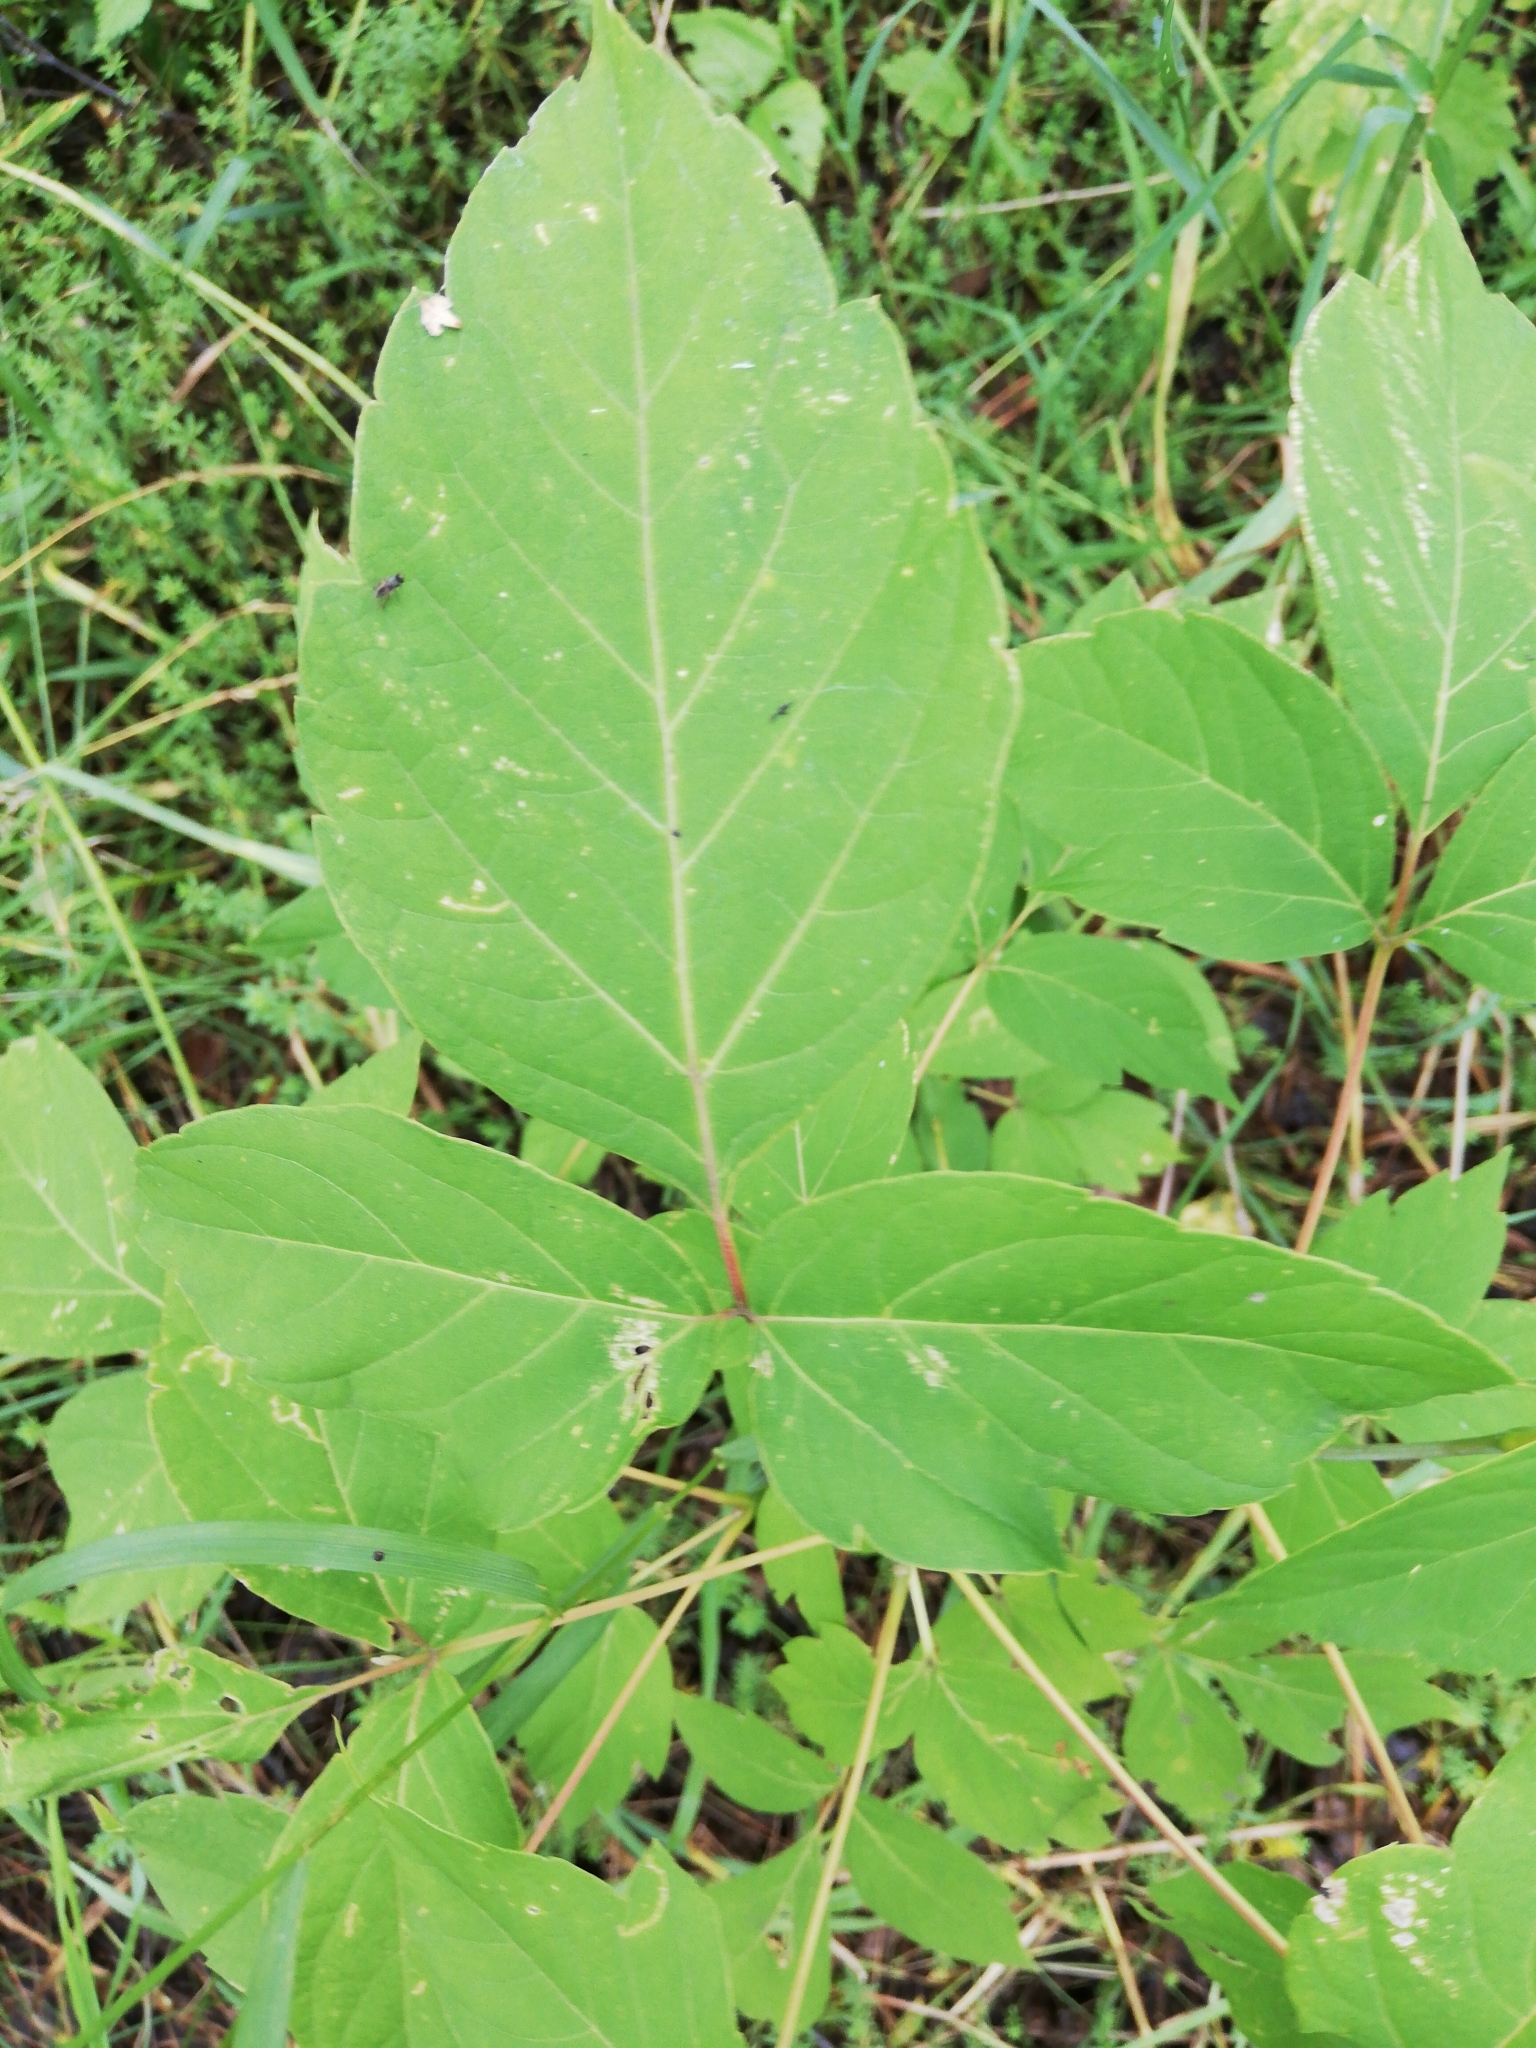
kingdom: Plantae
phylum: Tracheophyta
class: Magnoliopsida
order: Sapindales
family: Sapindaceae
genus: Acer
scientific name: Acer negundo
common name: Ashleaf maple
